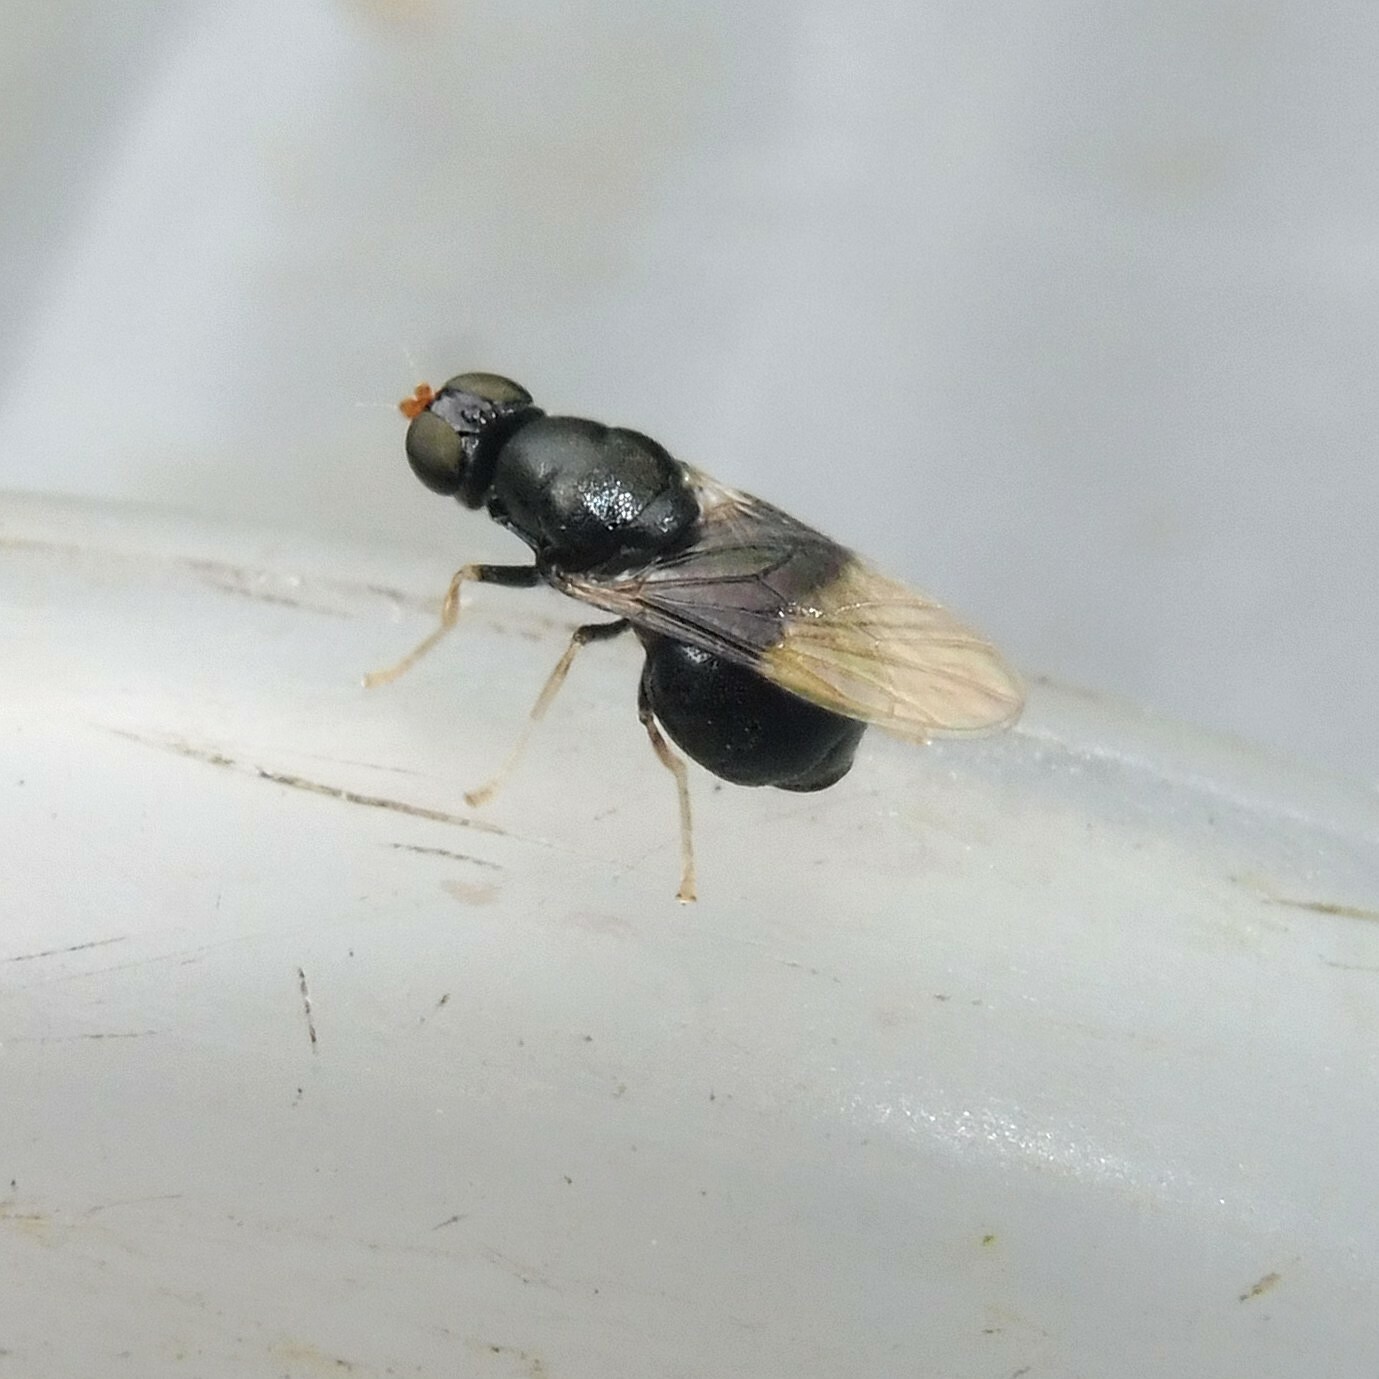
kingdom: Animalia
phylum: Arthropoda
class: Insecta
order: Diptera
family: Stratiomyidae
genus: Pachygaster
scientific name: Pachygaster atra
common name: Dark-winged black
